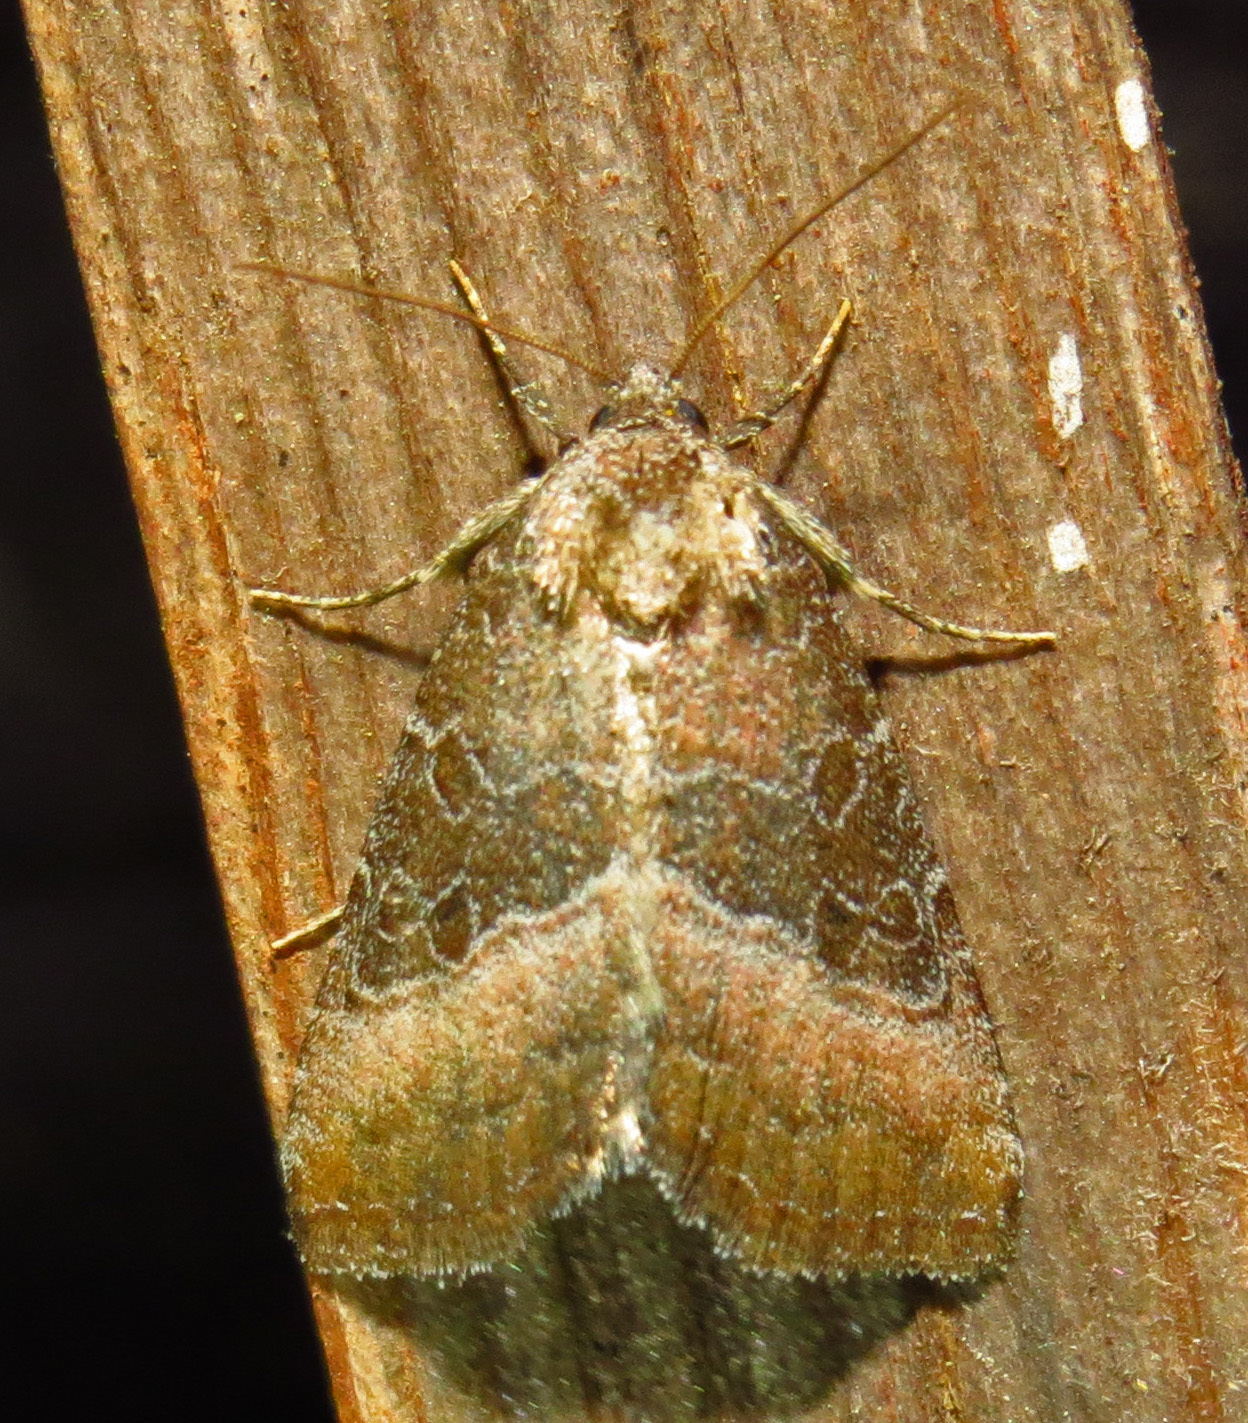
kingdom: Animalia
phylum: Arthropoda
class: Insecta
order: Lepidoptera
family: Noctuidae
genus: Ogdoconta
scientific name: Ogdoconta cinereola
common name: Common pinkband
